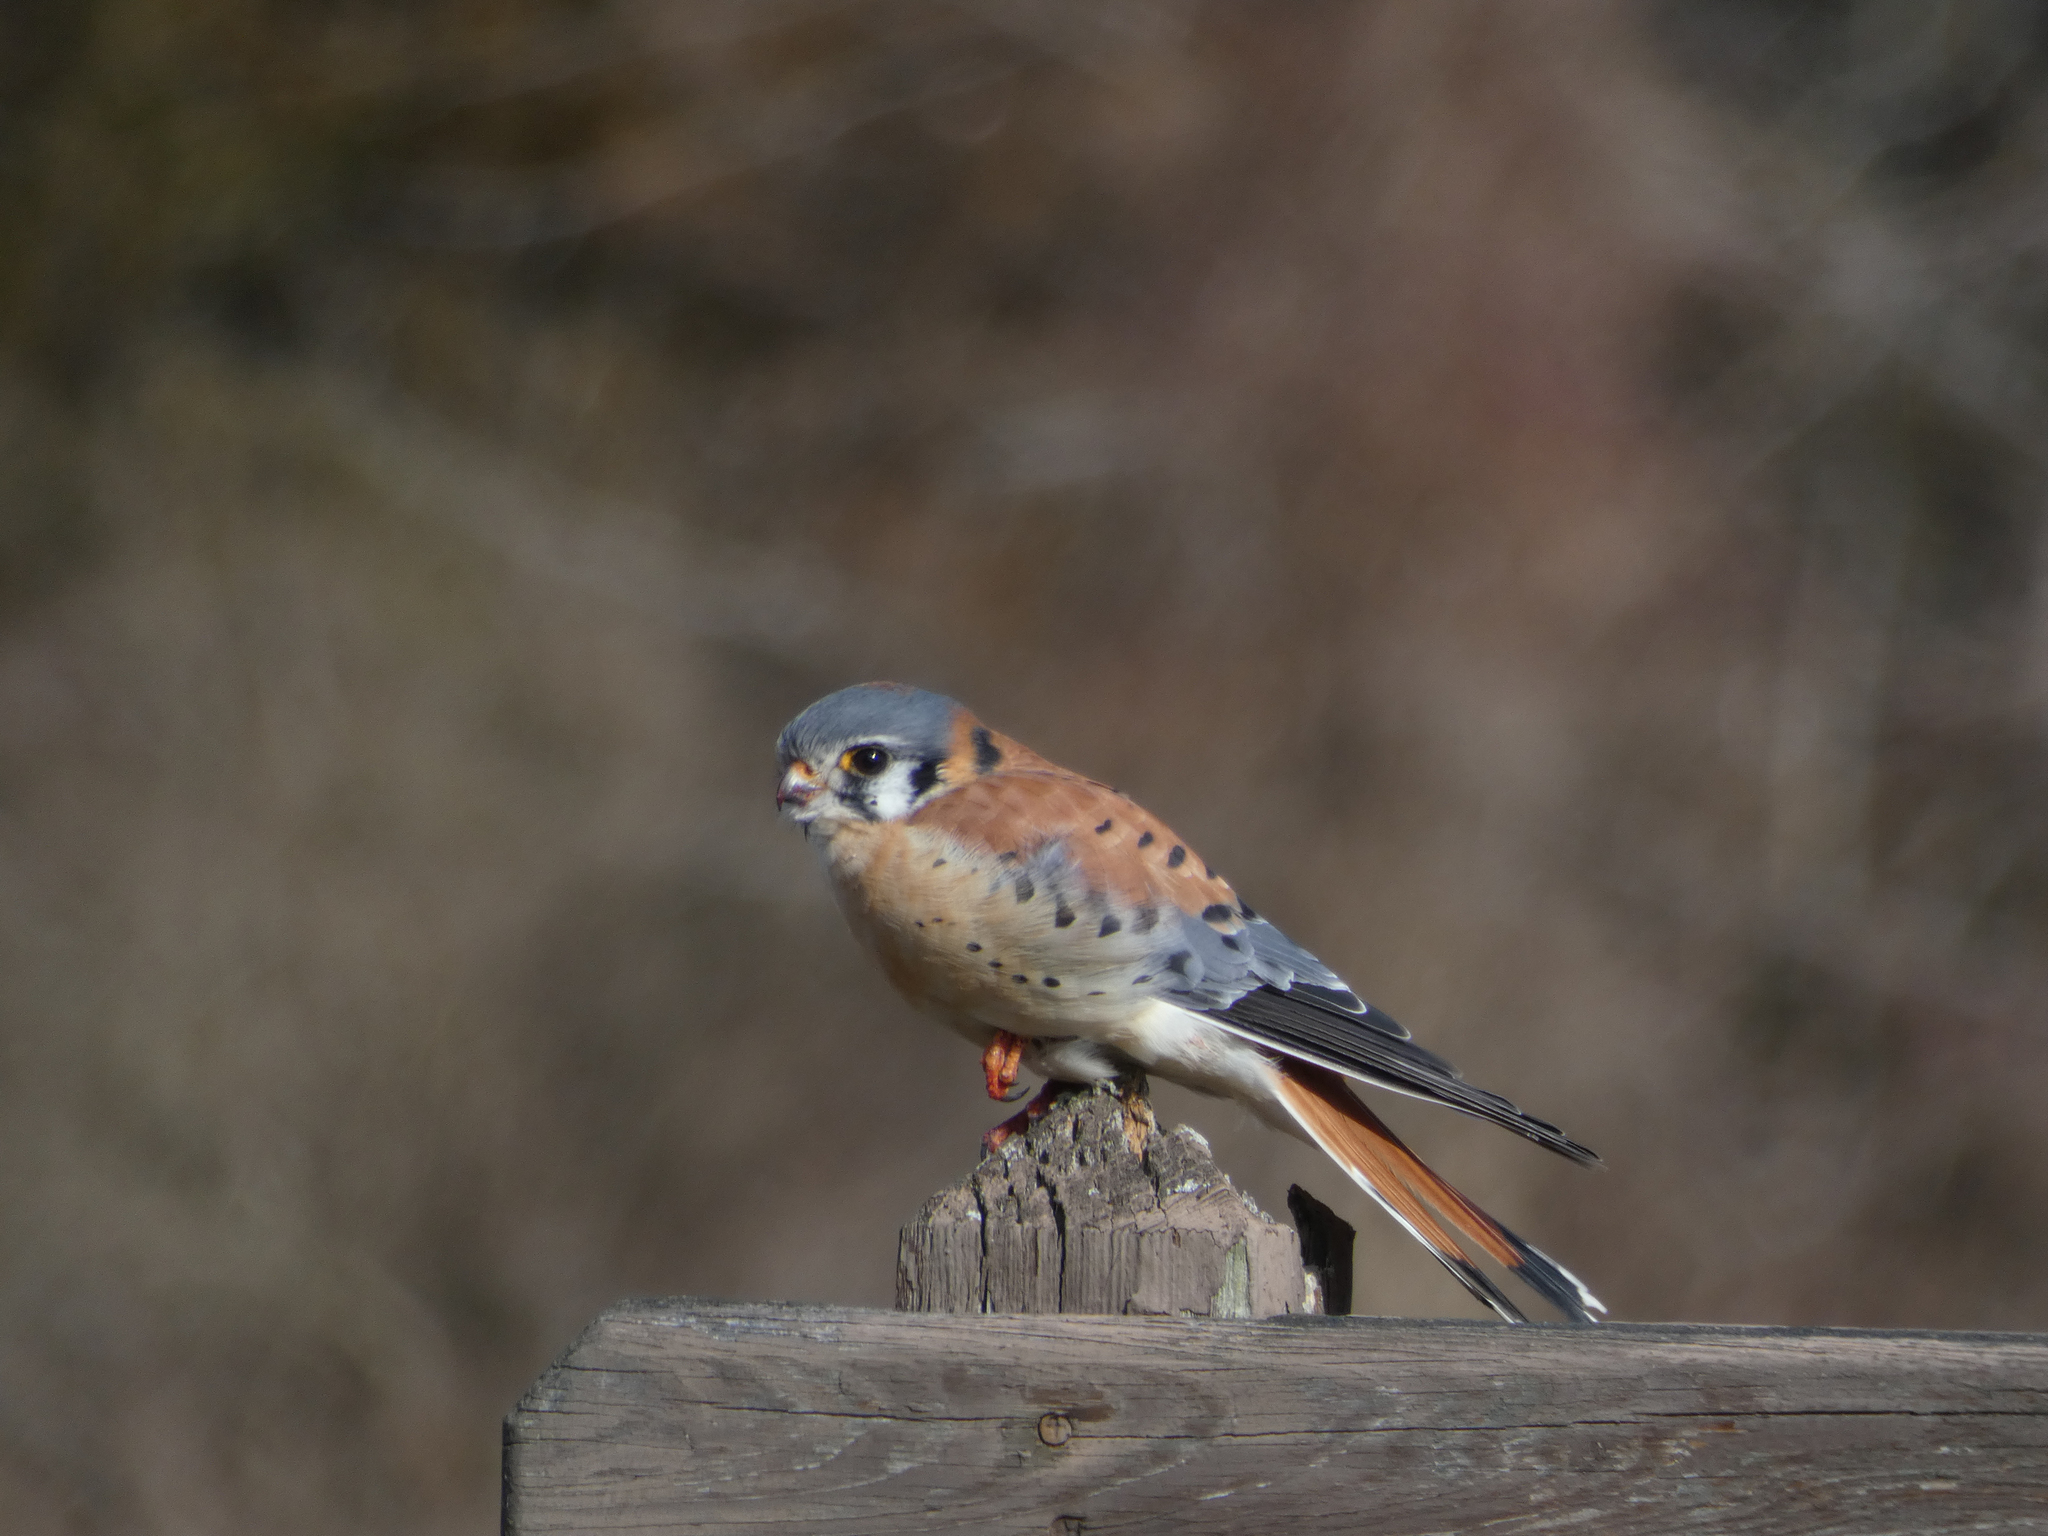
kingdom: Animalia
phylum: Chordata
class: Aves
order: Falconiformes
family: Falconidae
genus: Falco
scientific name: Falco sparverius
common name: American kestrel
